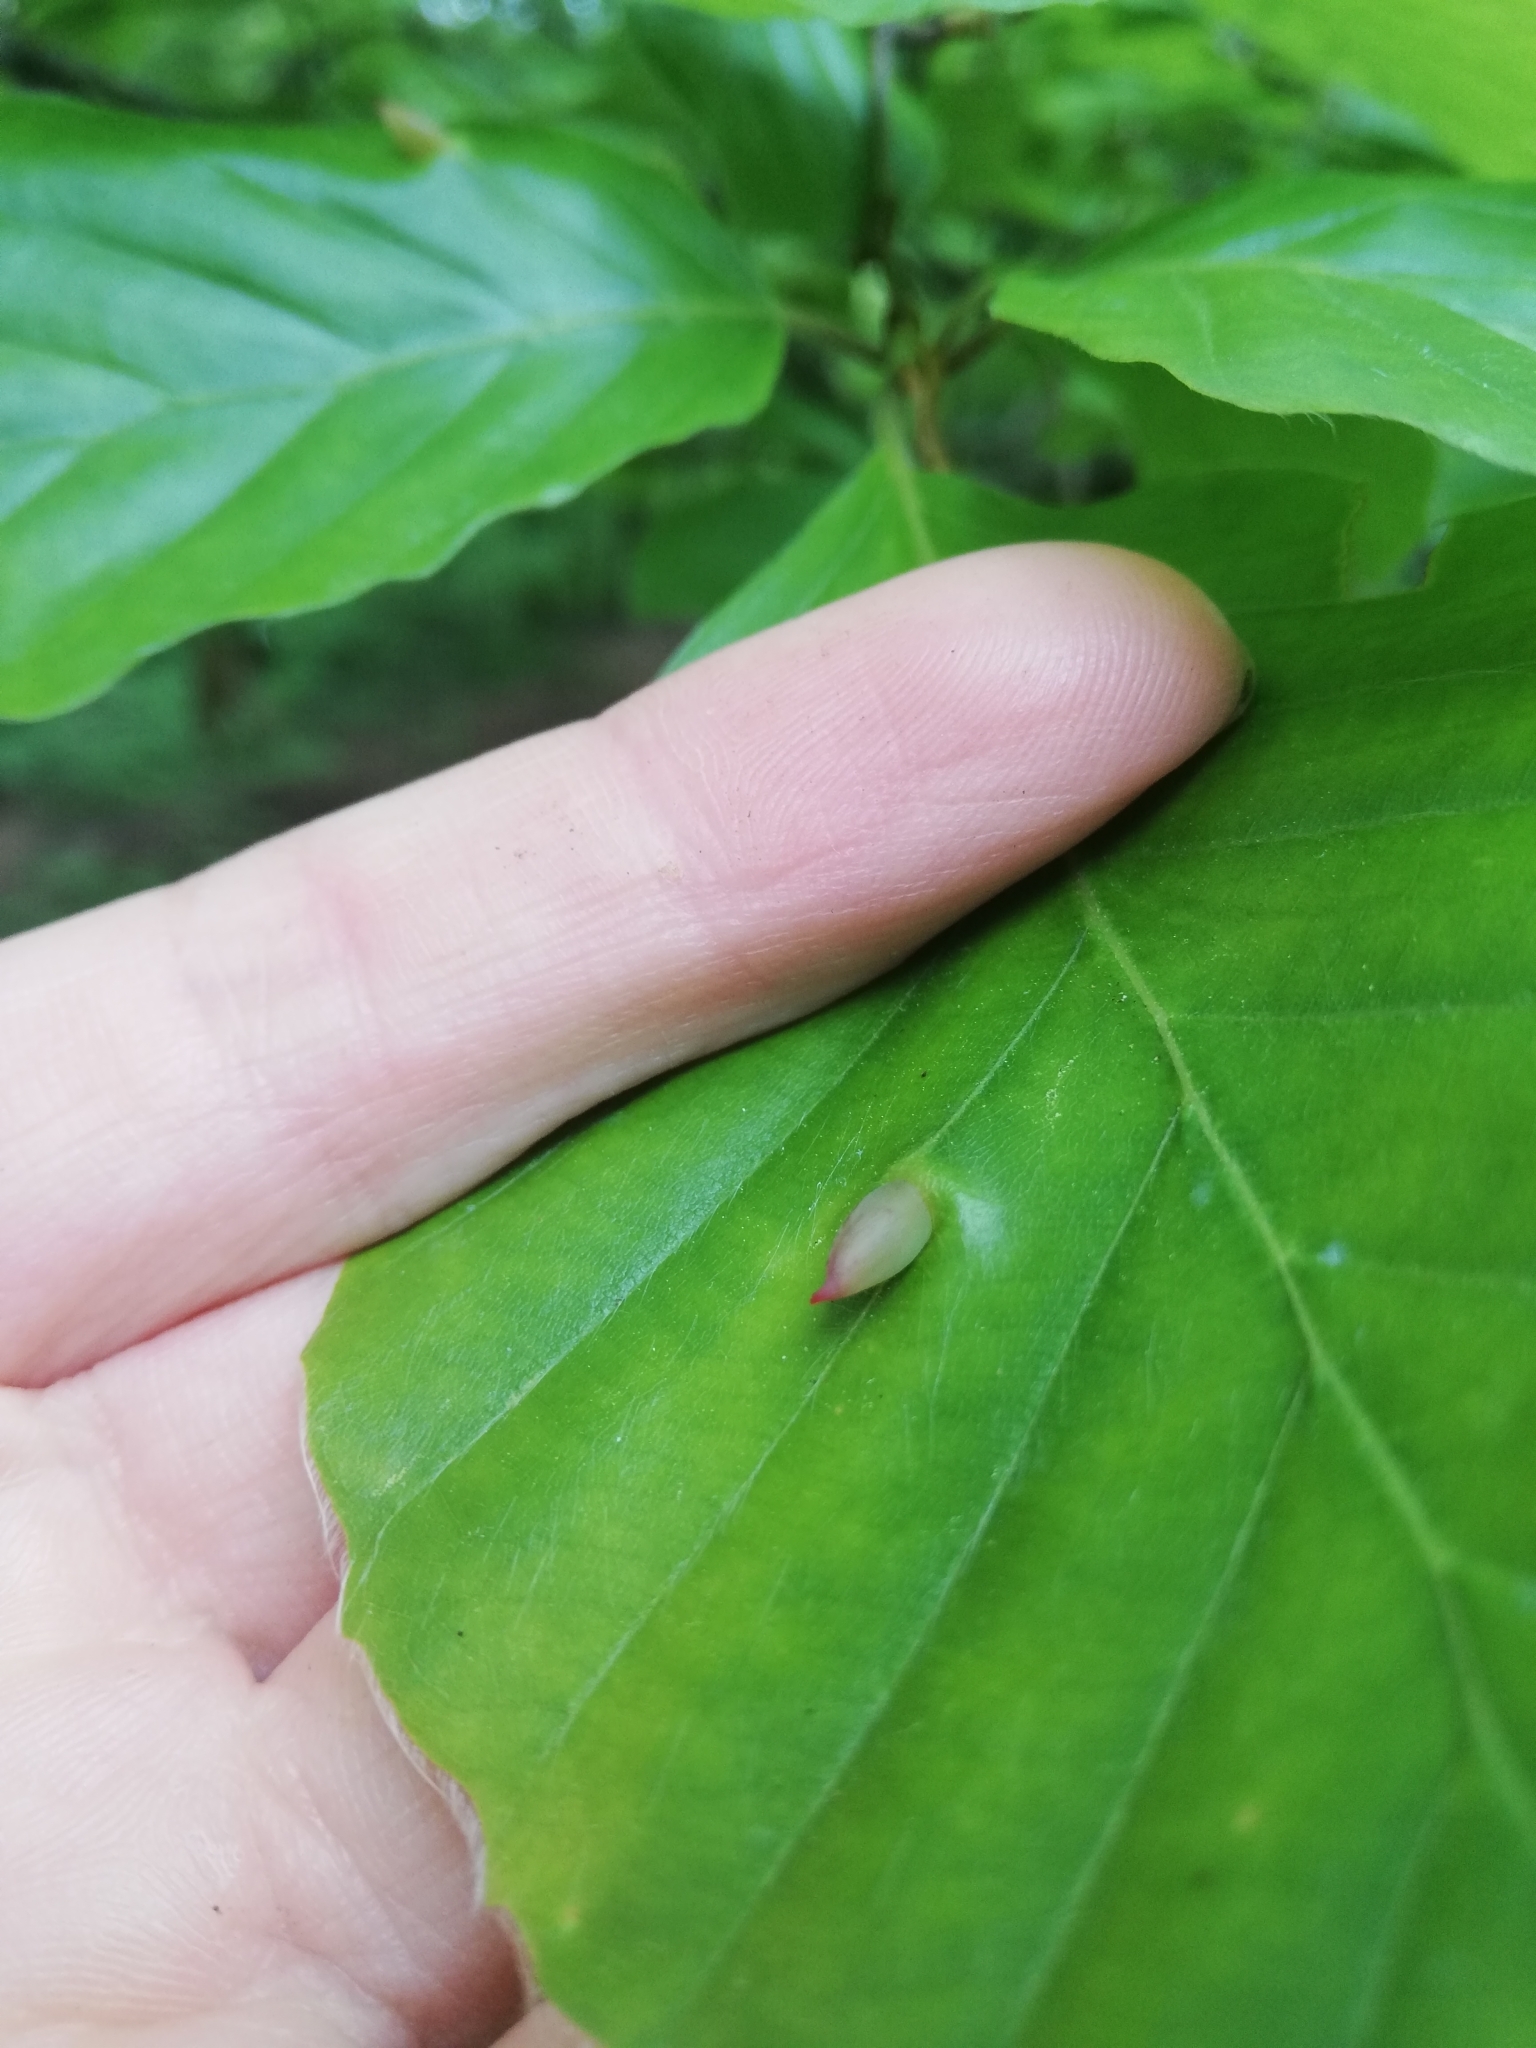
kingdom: Animalia
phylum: Arthropoda
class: Insecta
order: Diptera
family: Cecidomyiidae
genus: Mikiola
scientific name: Mikiola fagi
